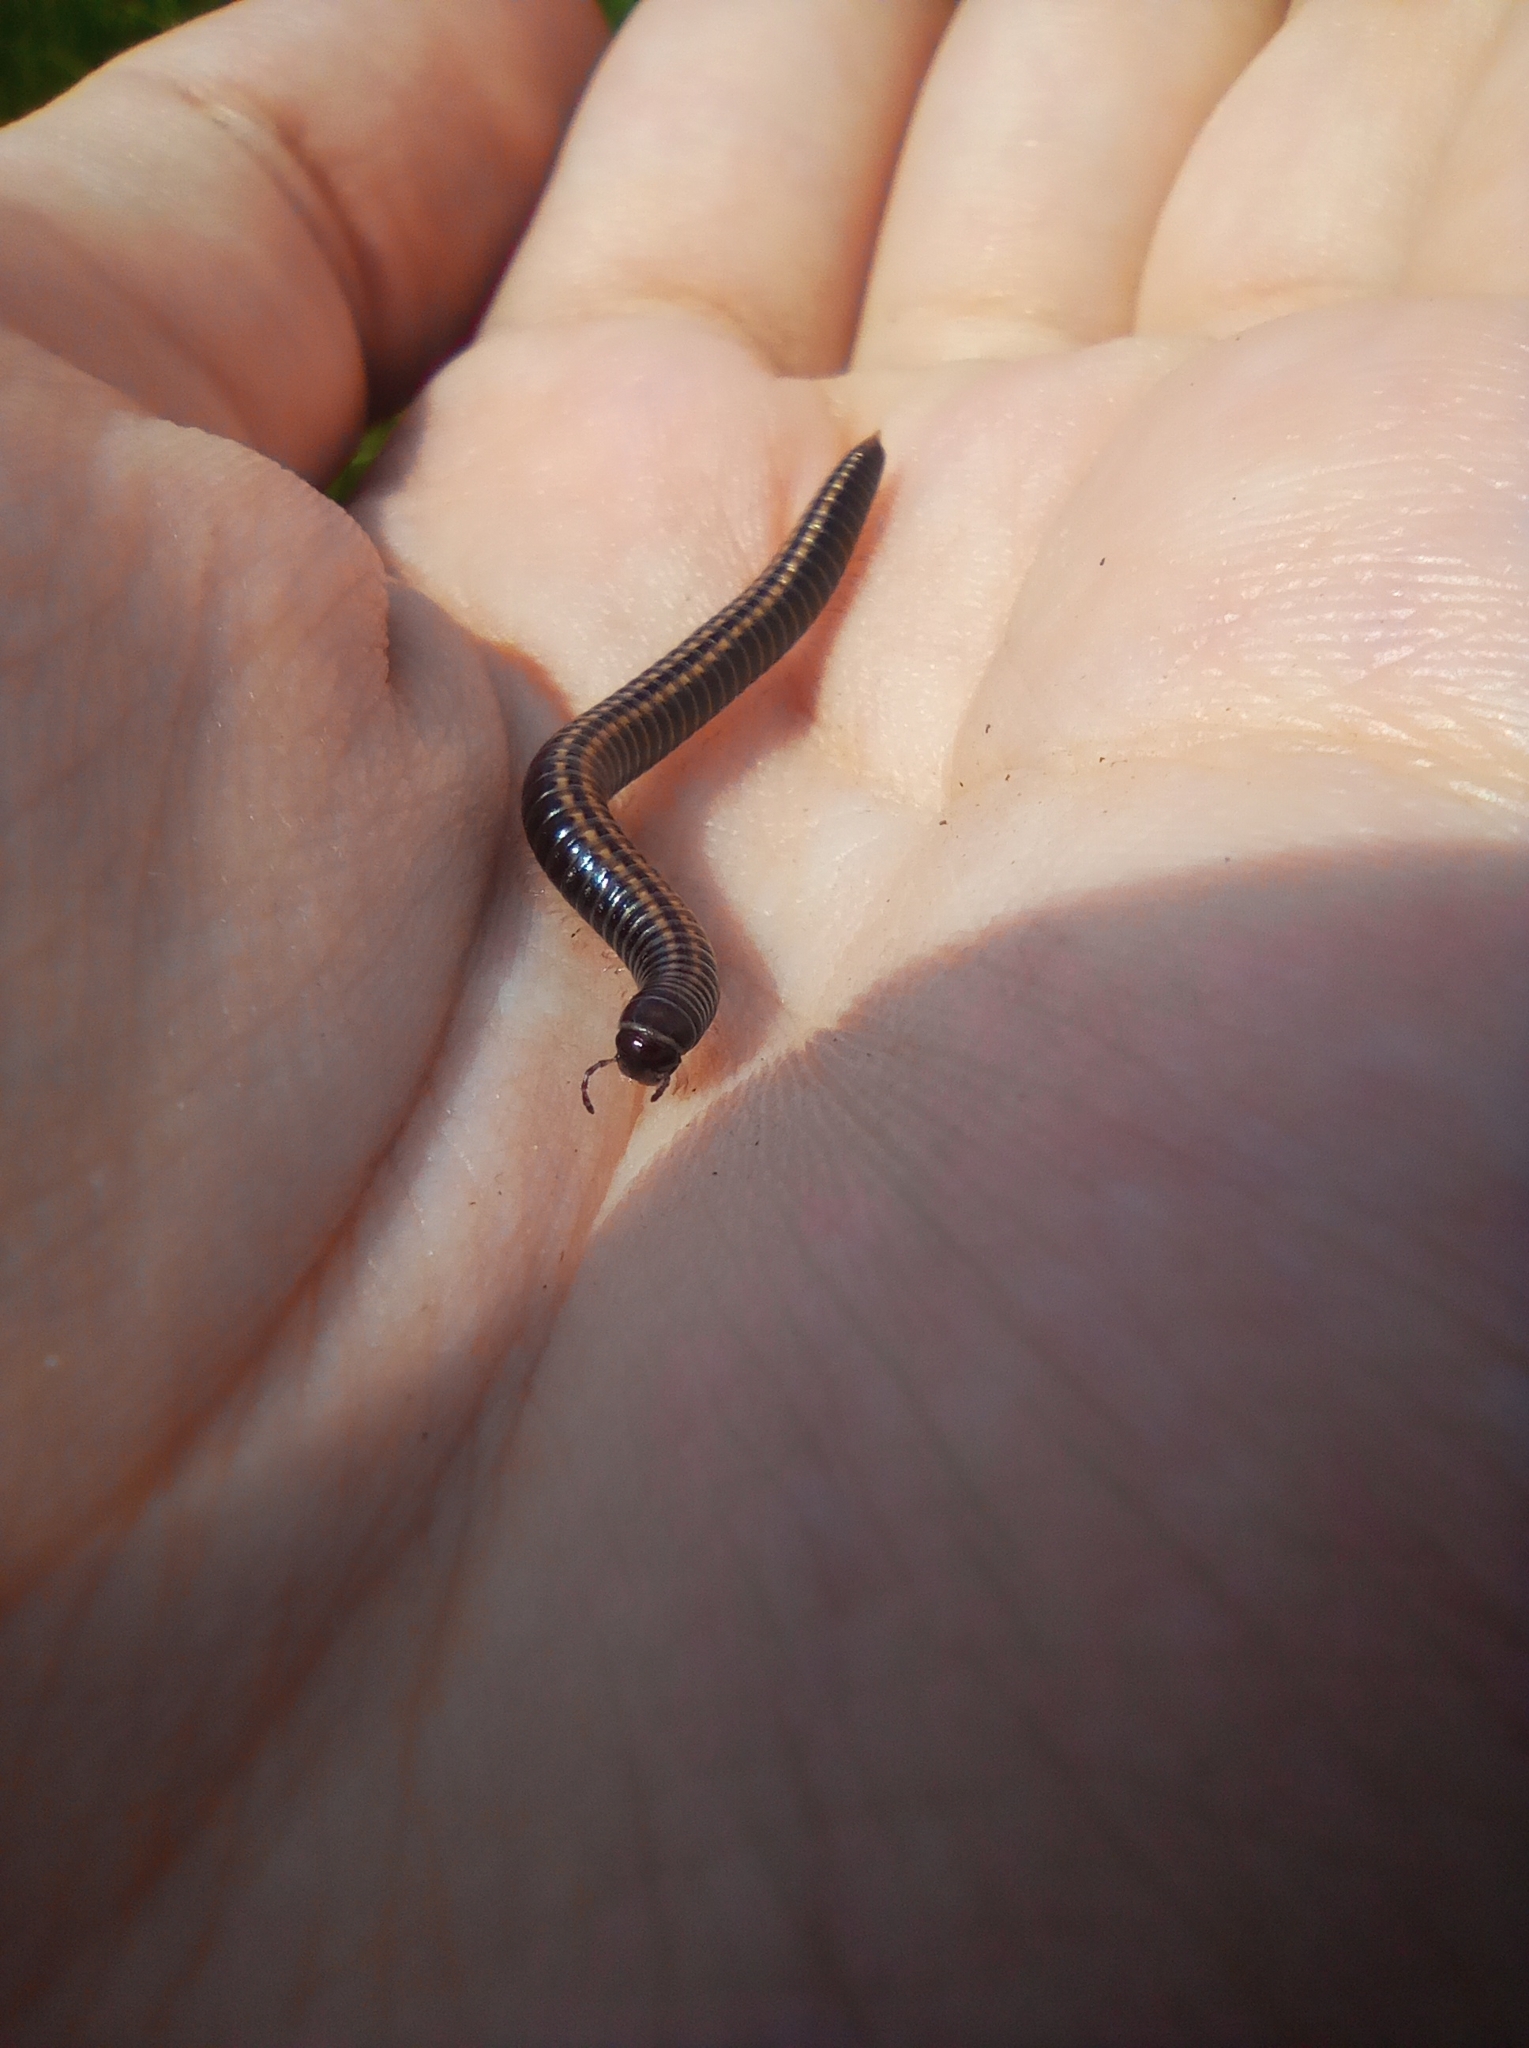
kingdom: Animalia
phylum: Arthropoda
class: Diplopoda
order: Julida
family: Julidae
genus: Ommatoiulus
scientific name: Ommatoiulus sabulosus
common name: Striped millipede
